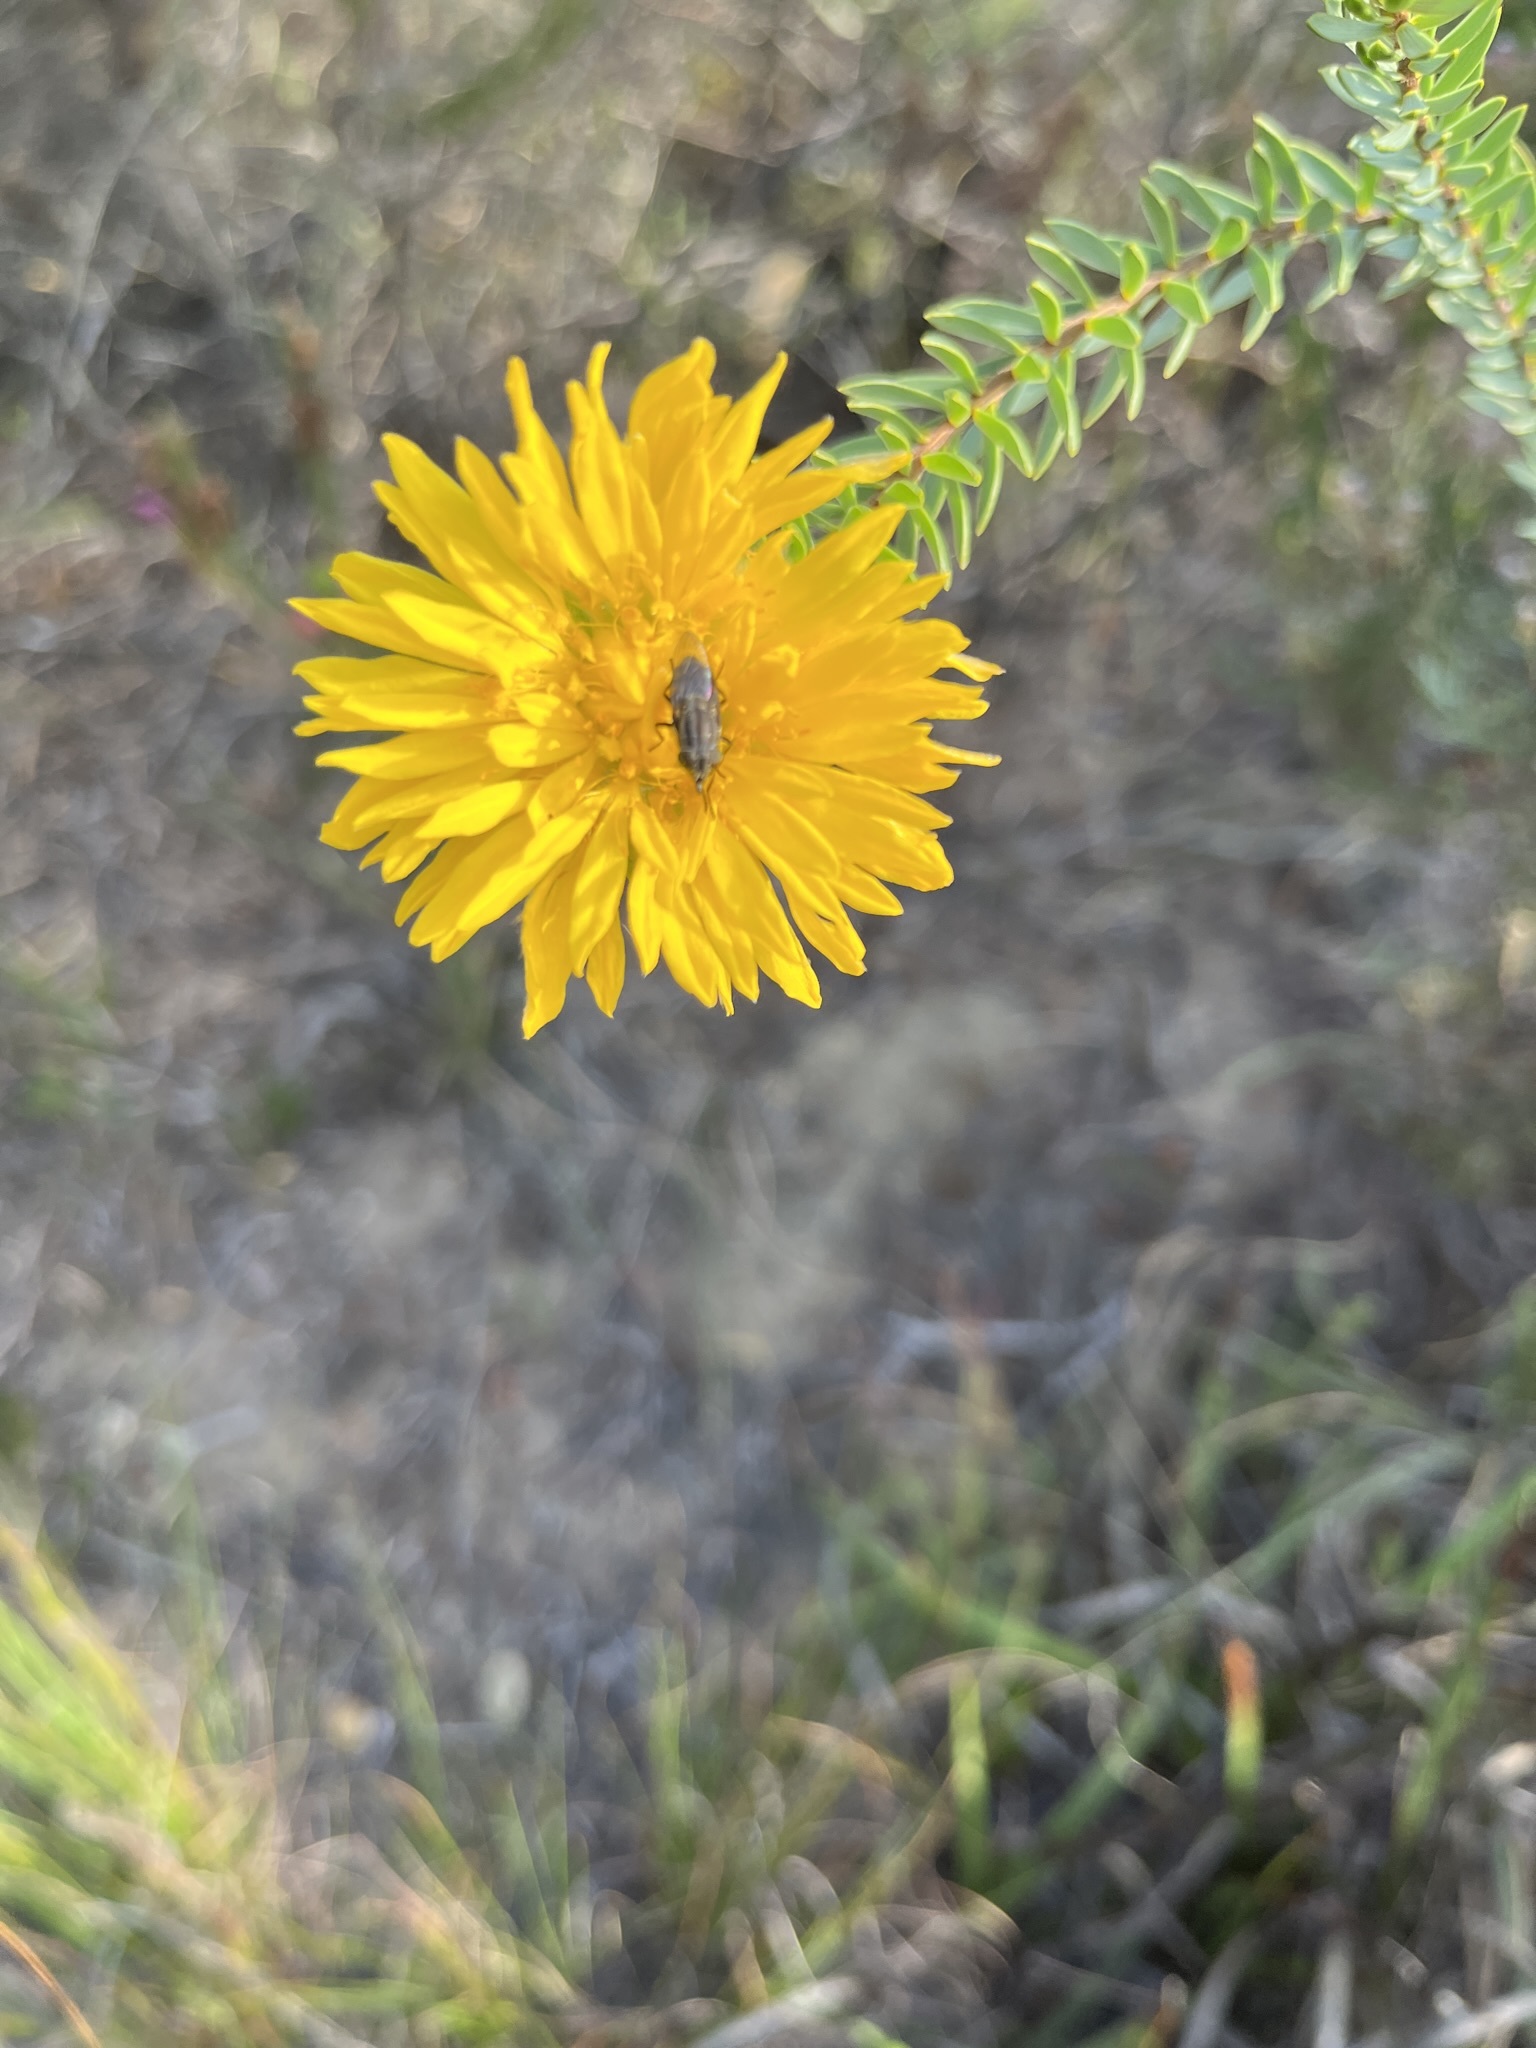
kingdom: Plantae
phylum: Tracheophyta
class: Magnoliopsida
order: Malvales
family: Thymelaeaceae
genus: Lachnaea
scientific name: Lachnaea aurea
